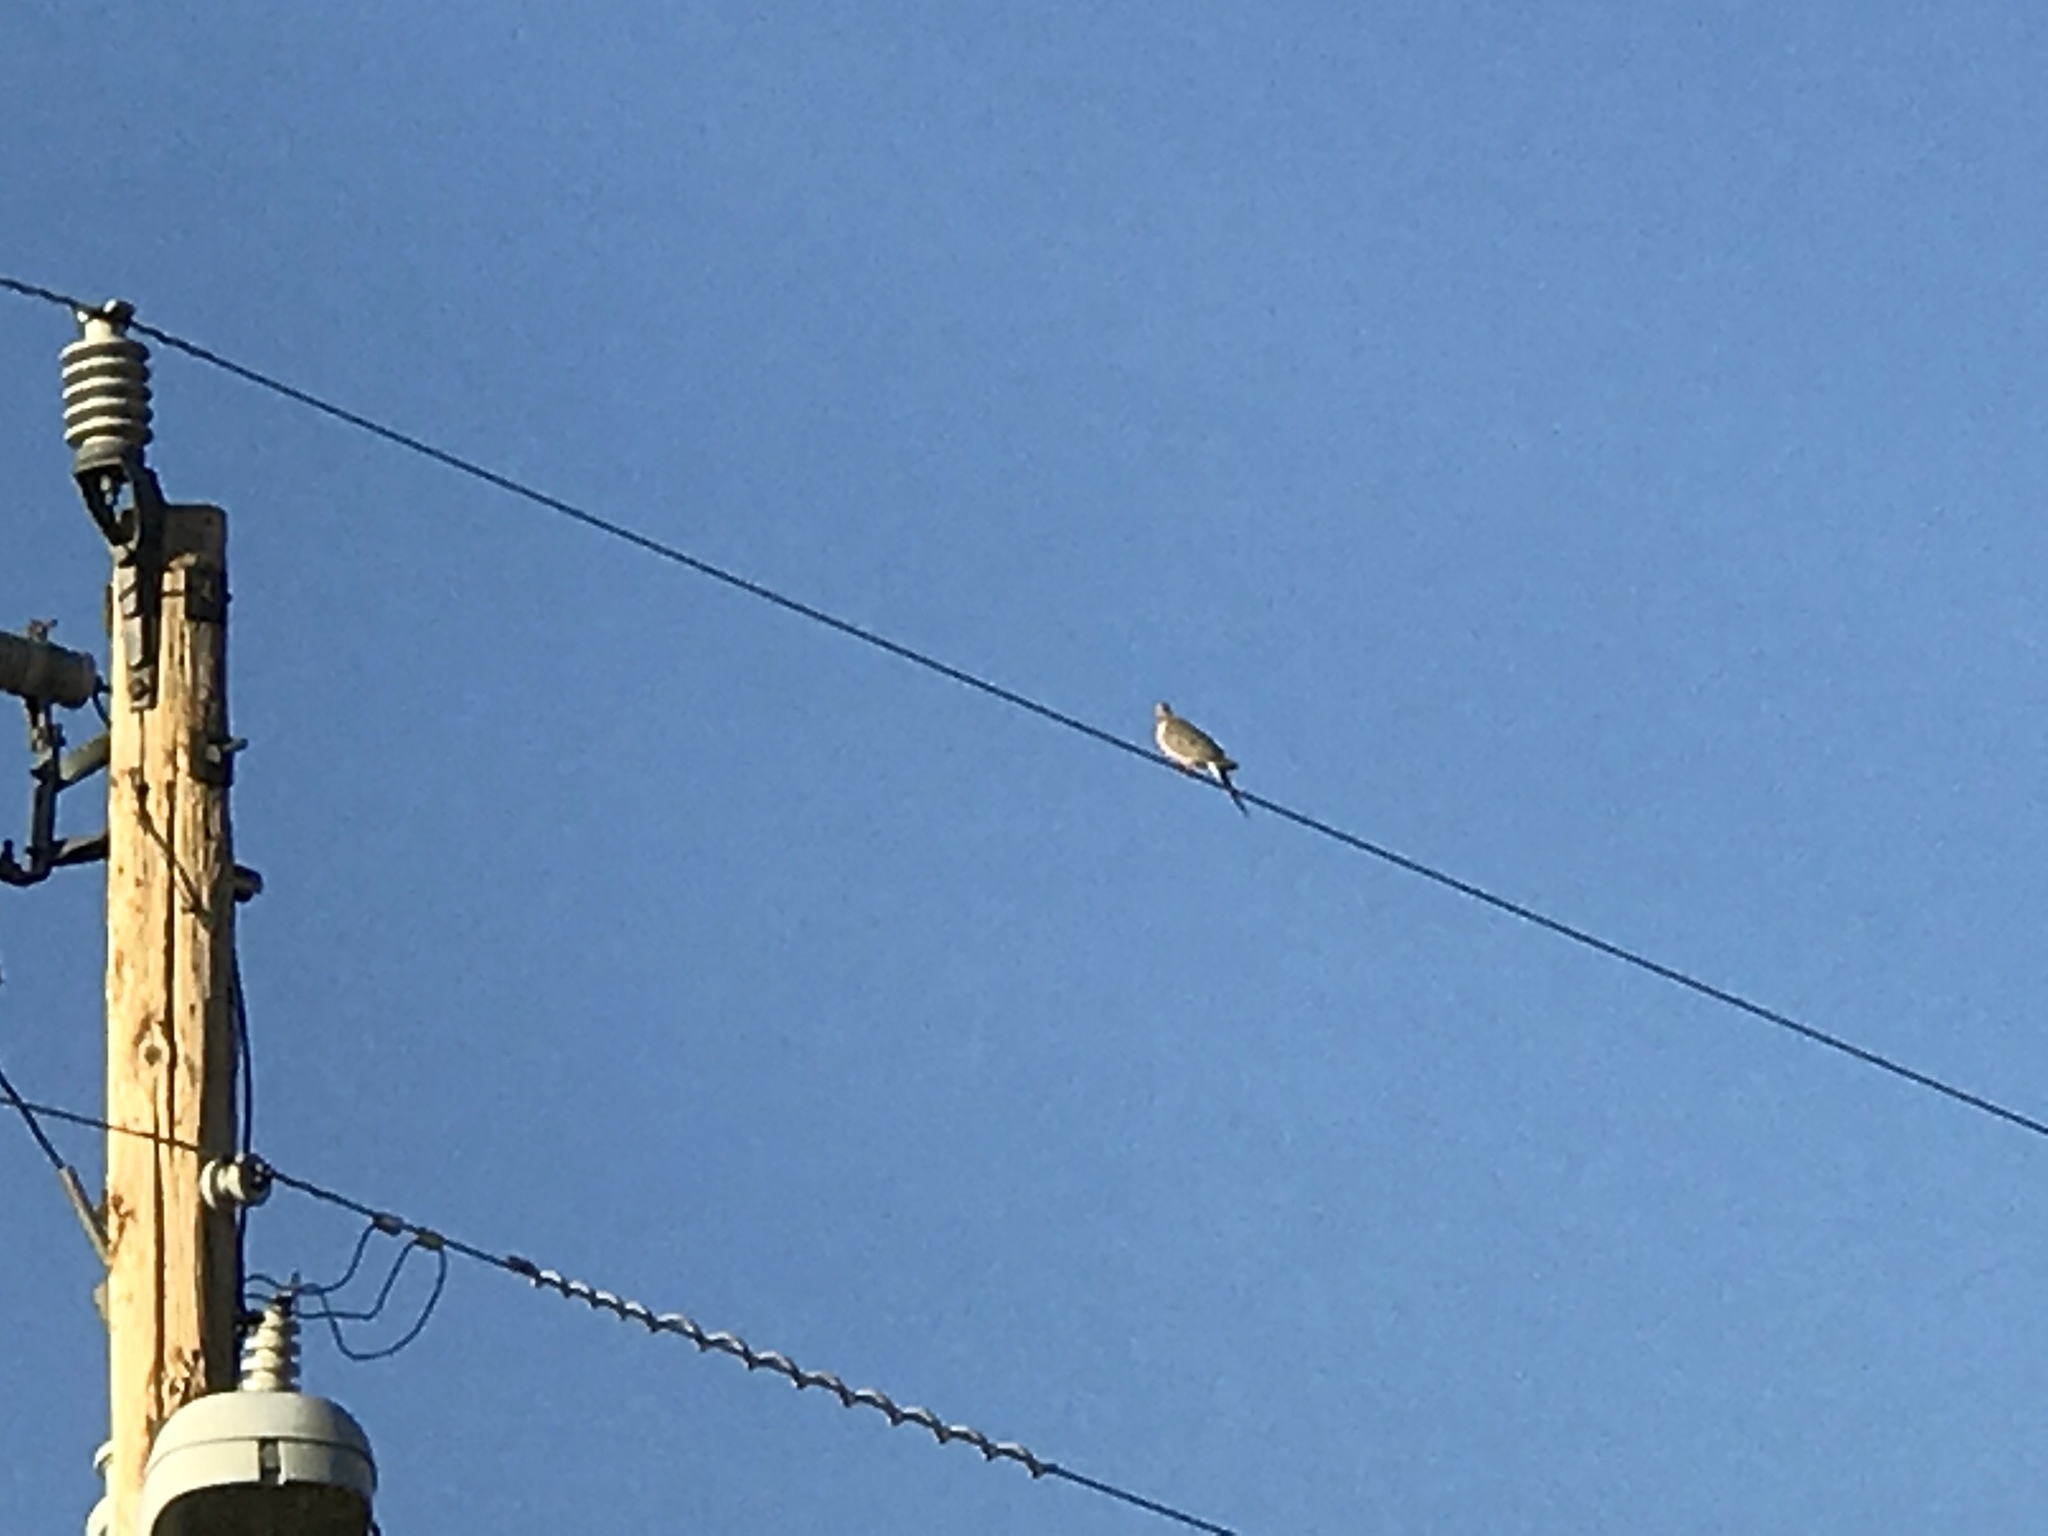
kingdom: Animalia
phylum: Chordata
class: Aves
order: Columbiformes
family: Columbidae
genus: Zenaida
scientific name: Zenaida macroura
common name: Mourning dove
